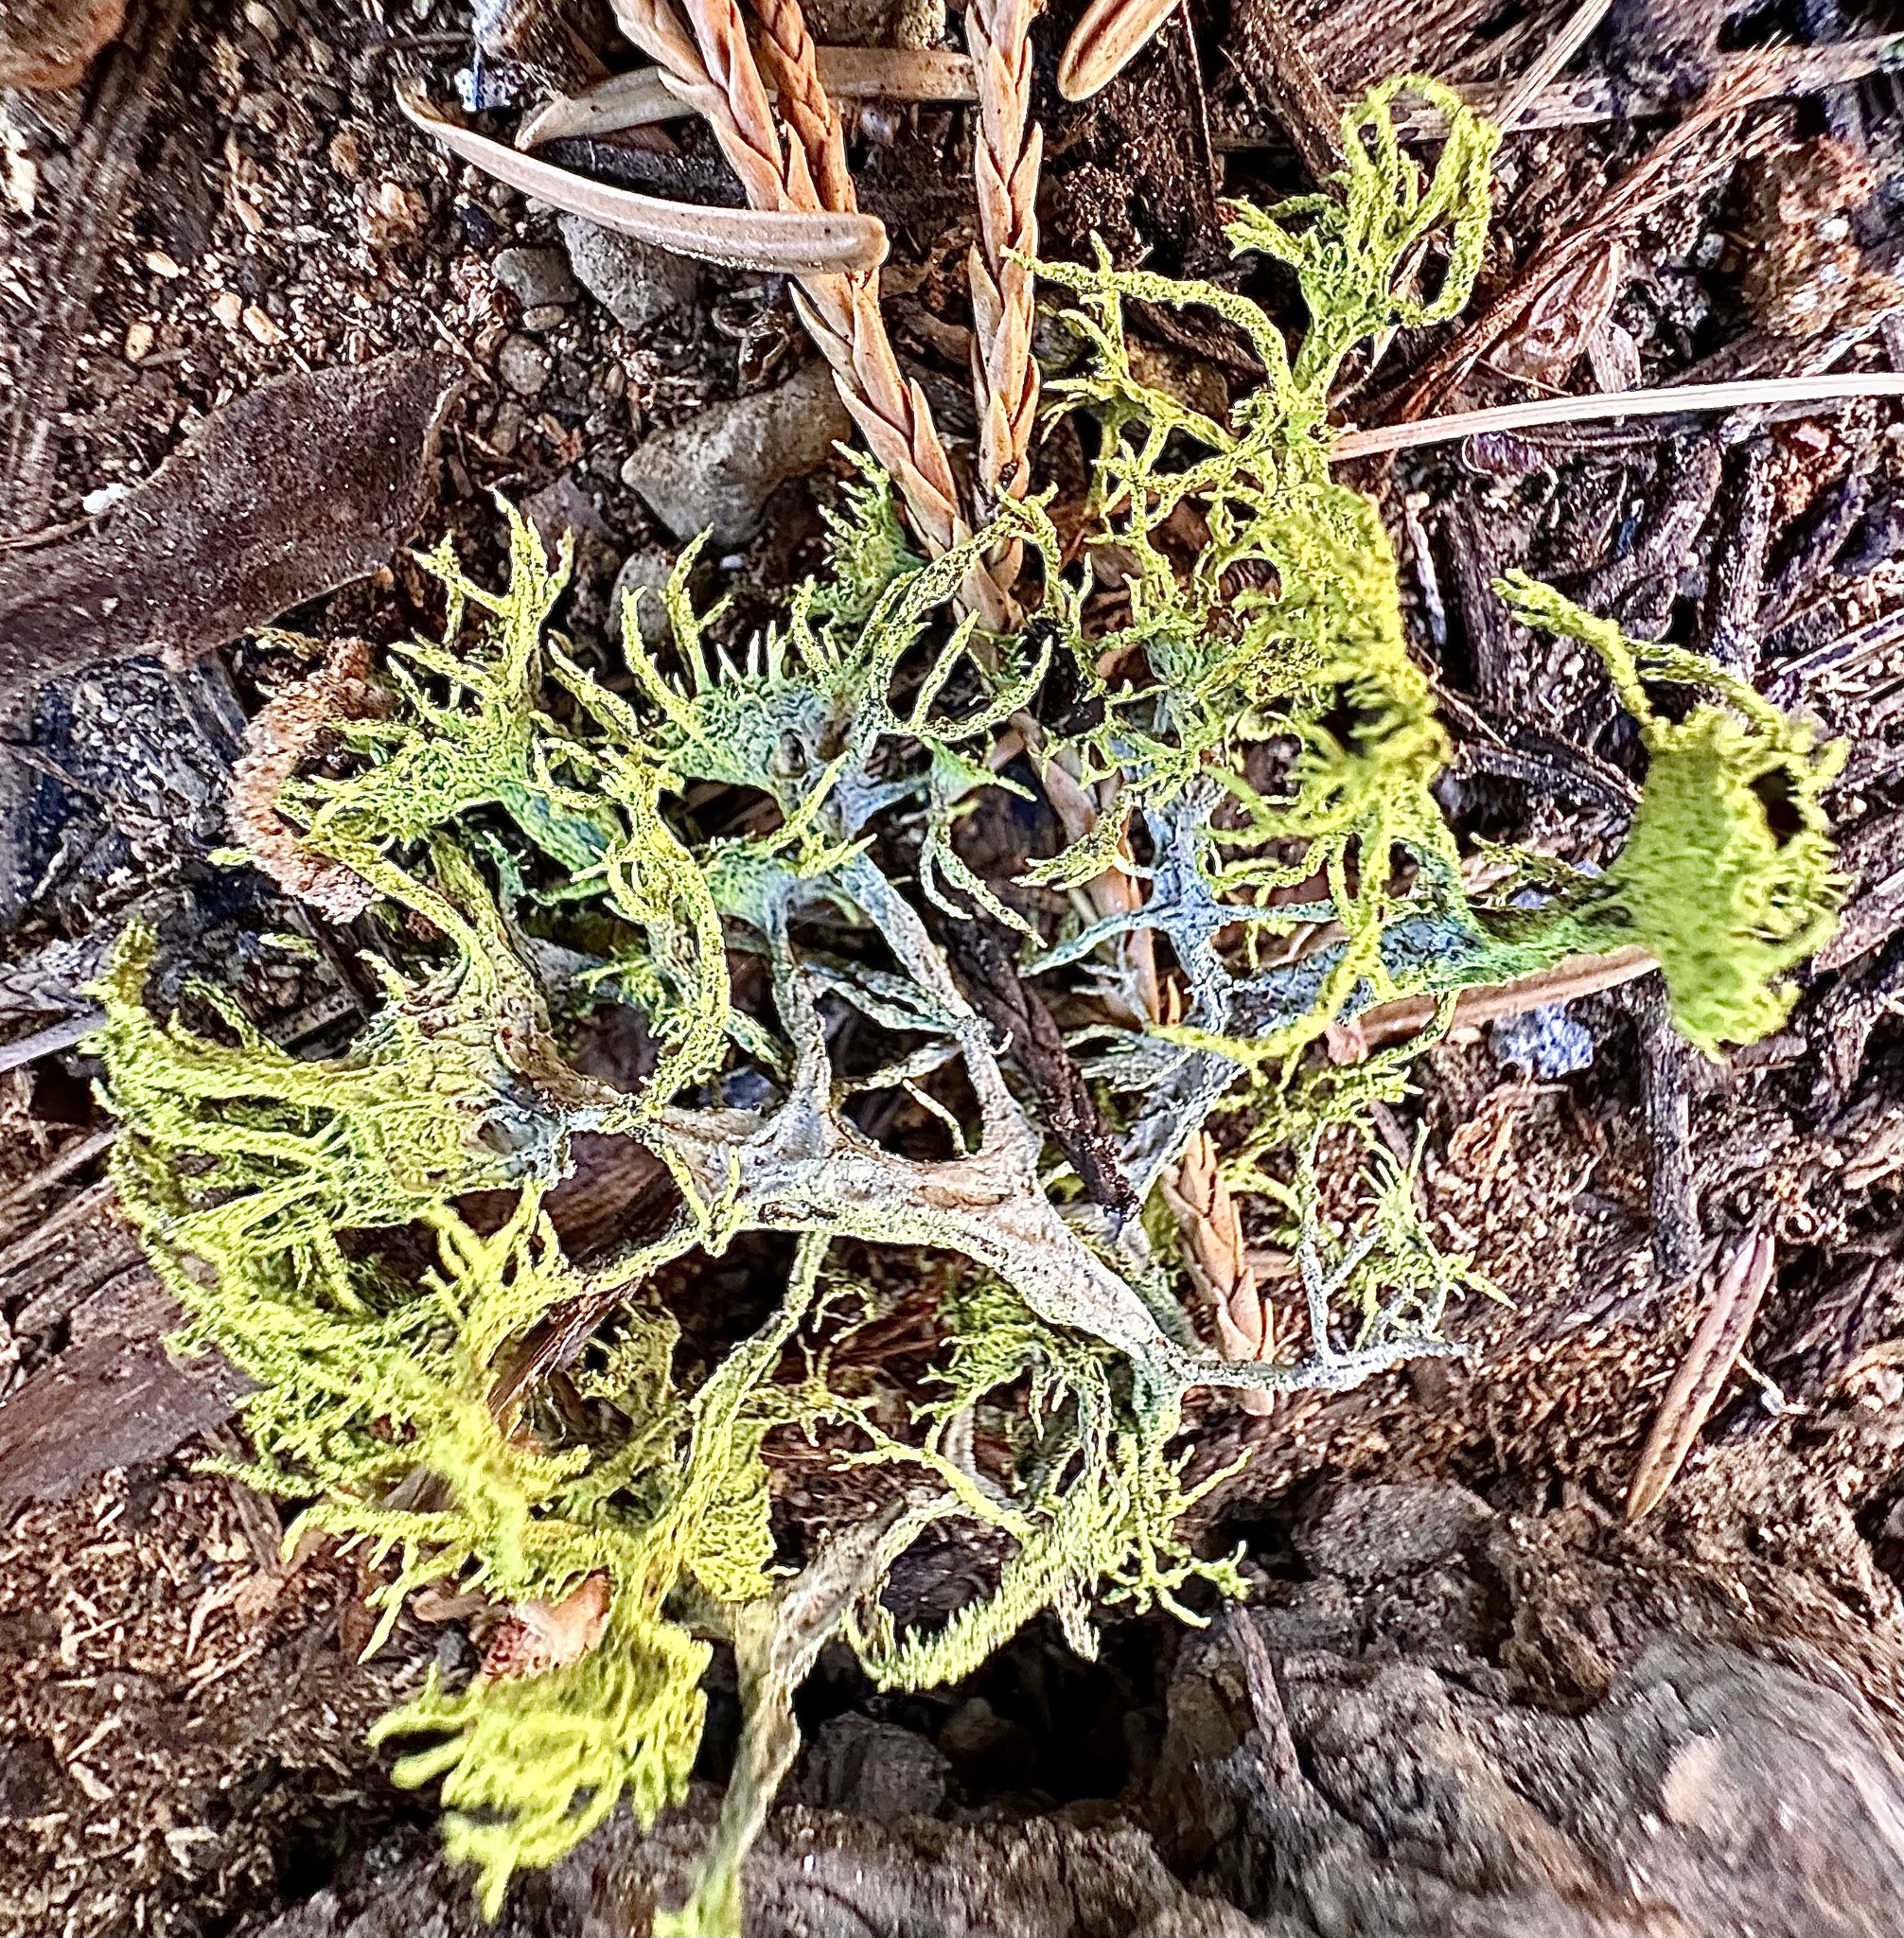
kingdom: Fungi
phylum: Ascomycota
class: Lecanoromycetes
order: Lecanorales
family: Parmeliaceae
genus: Letharia
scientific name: Letharia vulpina
